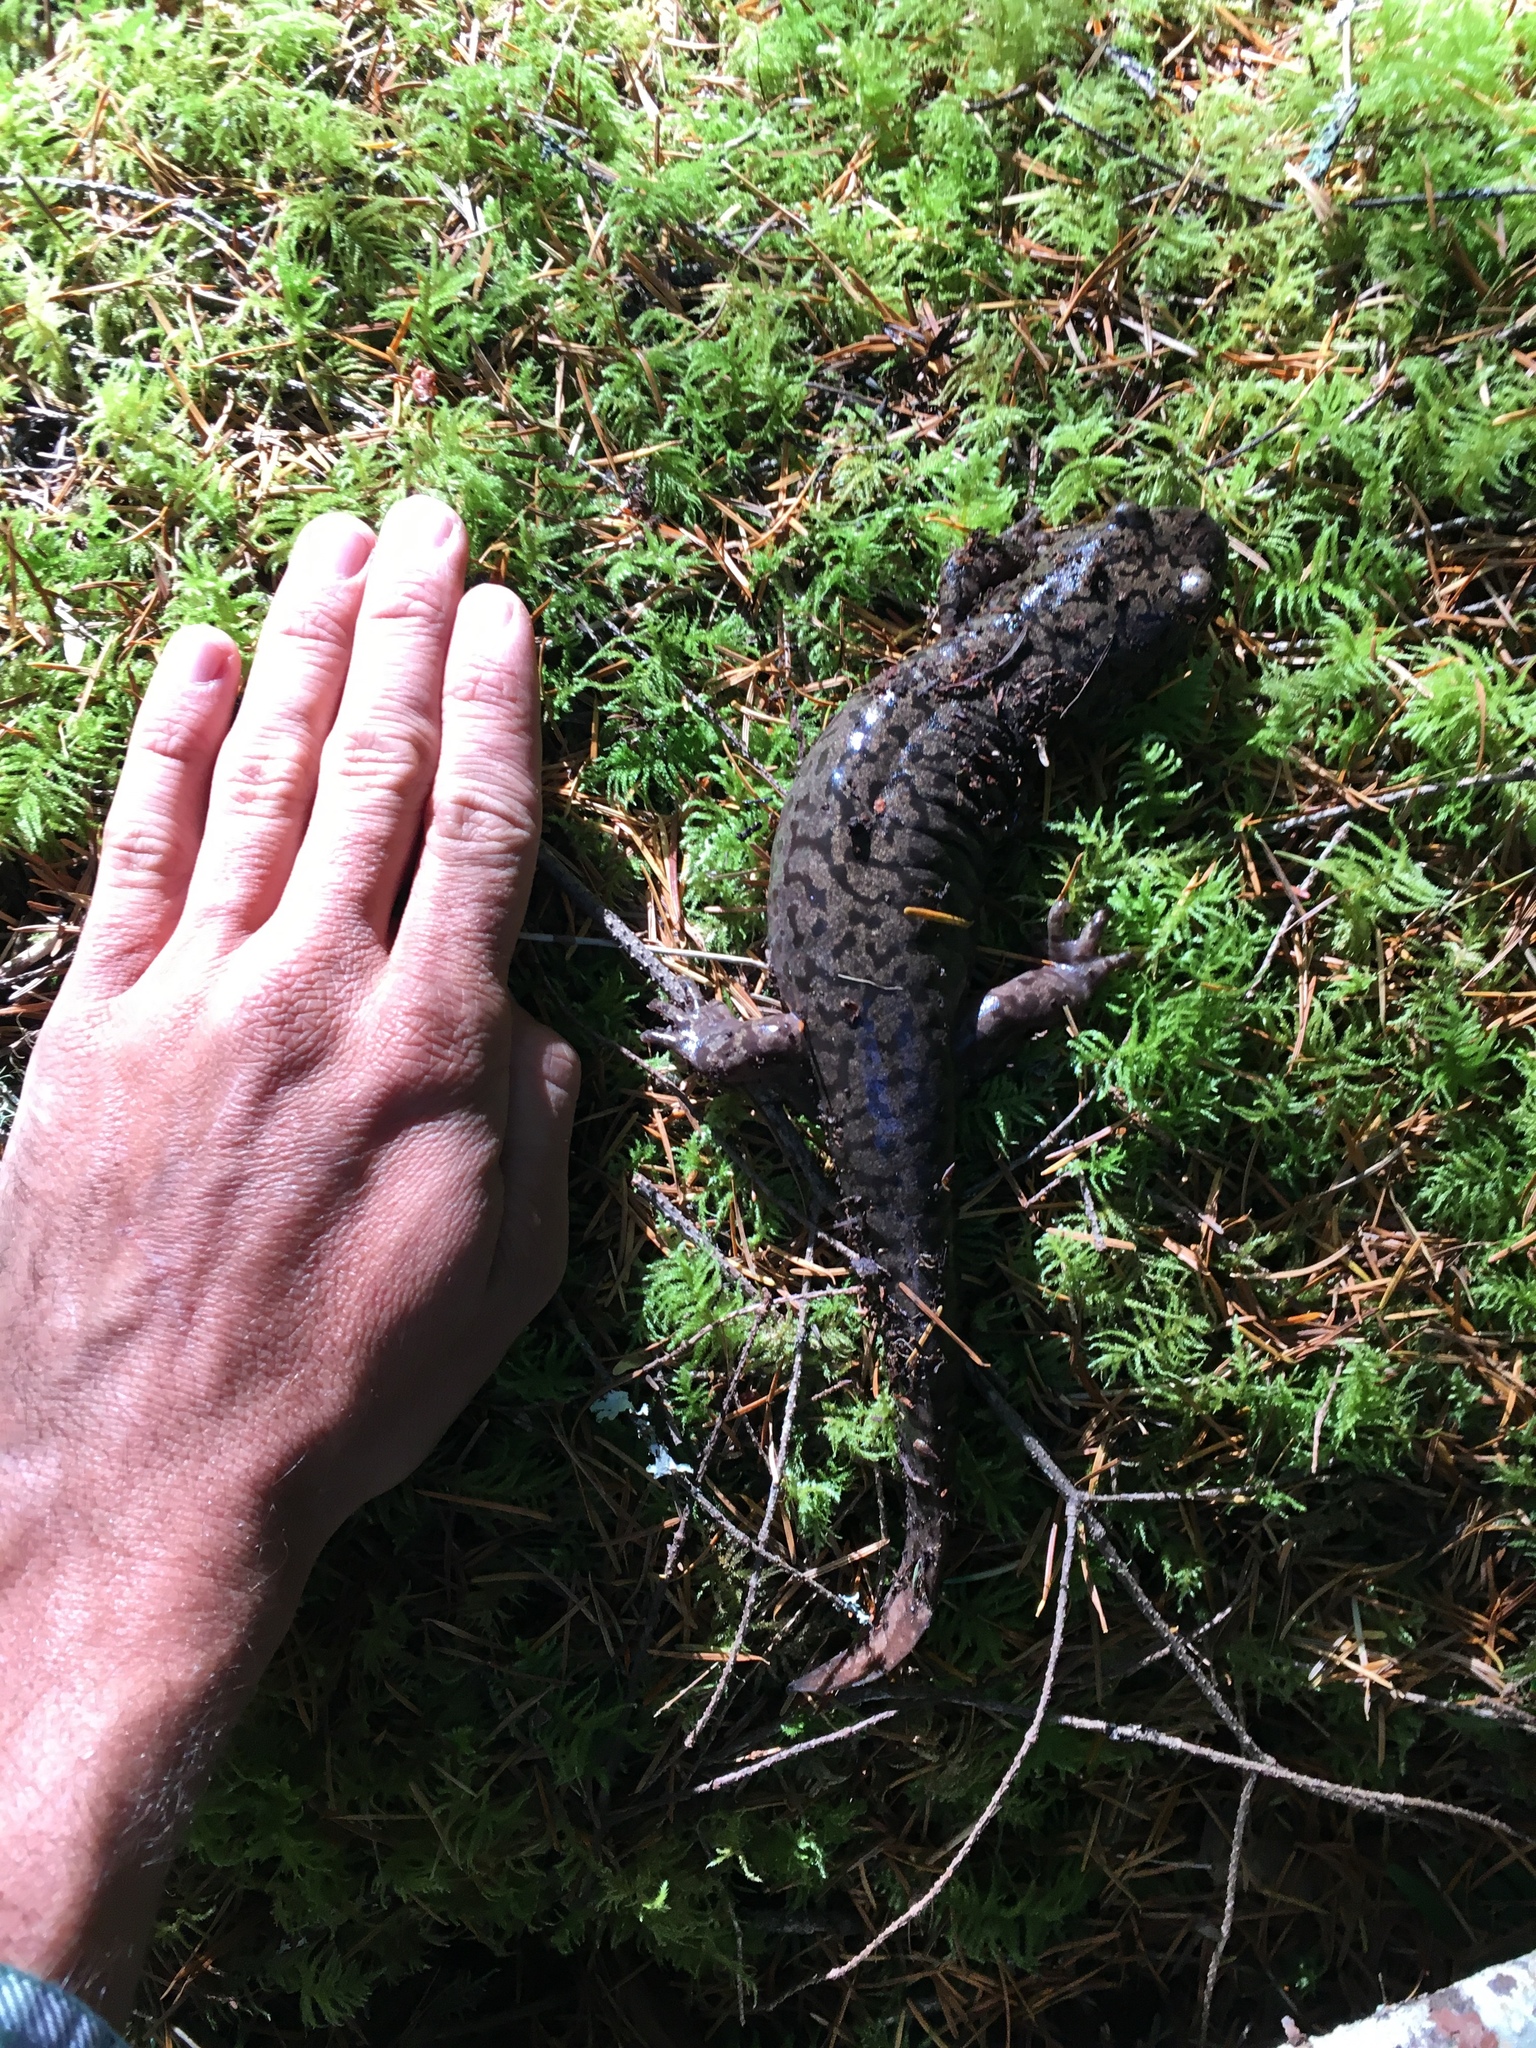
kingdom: Animalia
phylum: Chordata
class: Amphibia
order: Caudata
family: Ambystomatidae
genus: Dicamptodon
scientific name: Dicamptodon tenebrosus
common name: Coastal giant salamander
